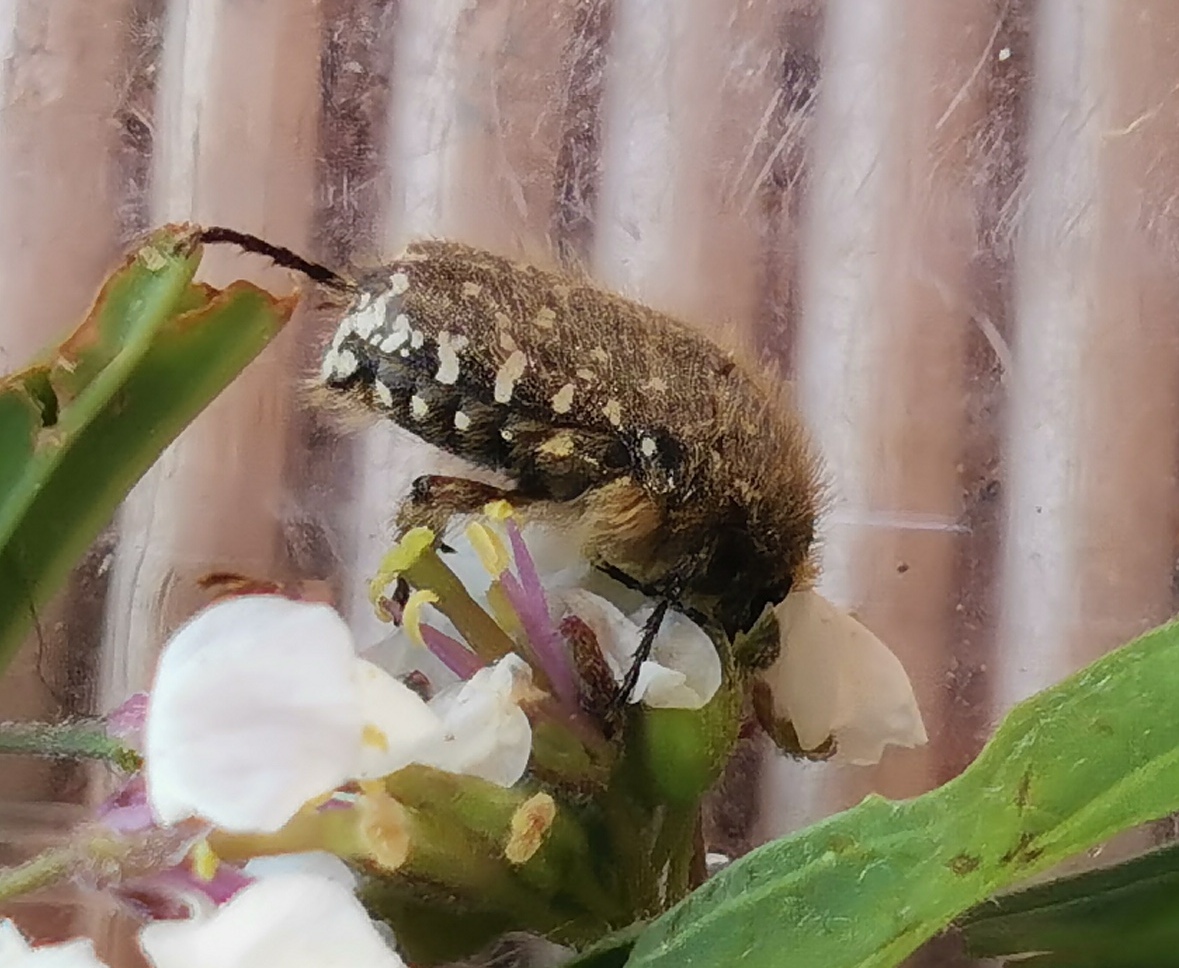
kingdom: Animalia
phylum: Arthropoda
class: Insecta
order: Coleoptera
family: Scarabaeidae
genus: Oxythyrea
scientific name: Oxythyrea funesta
